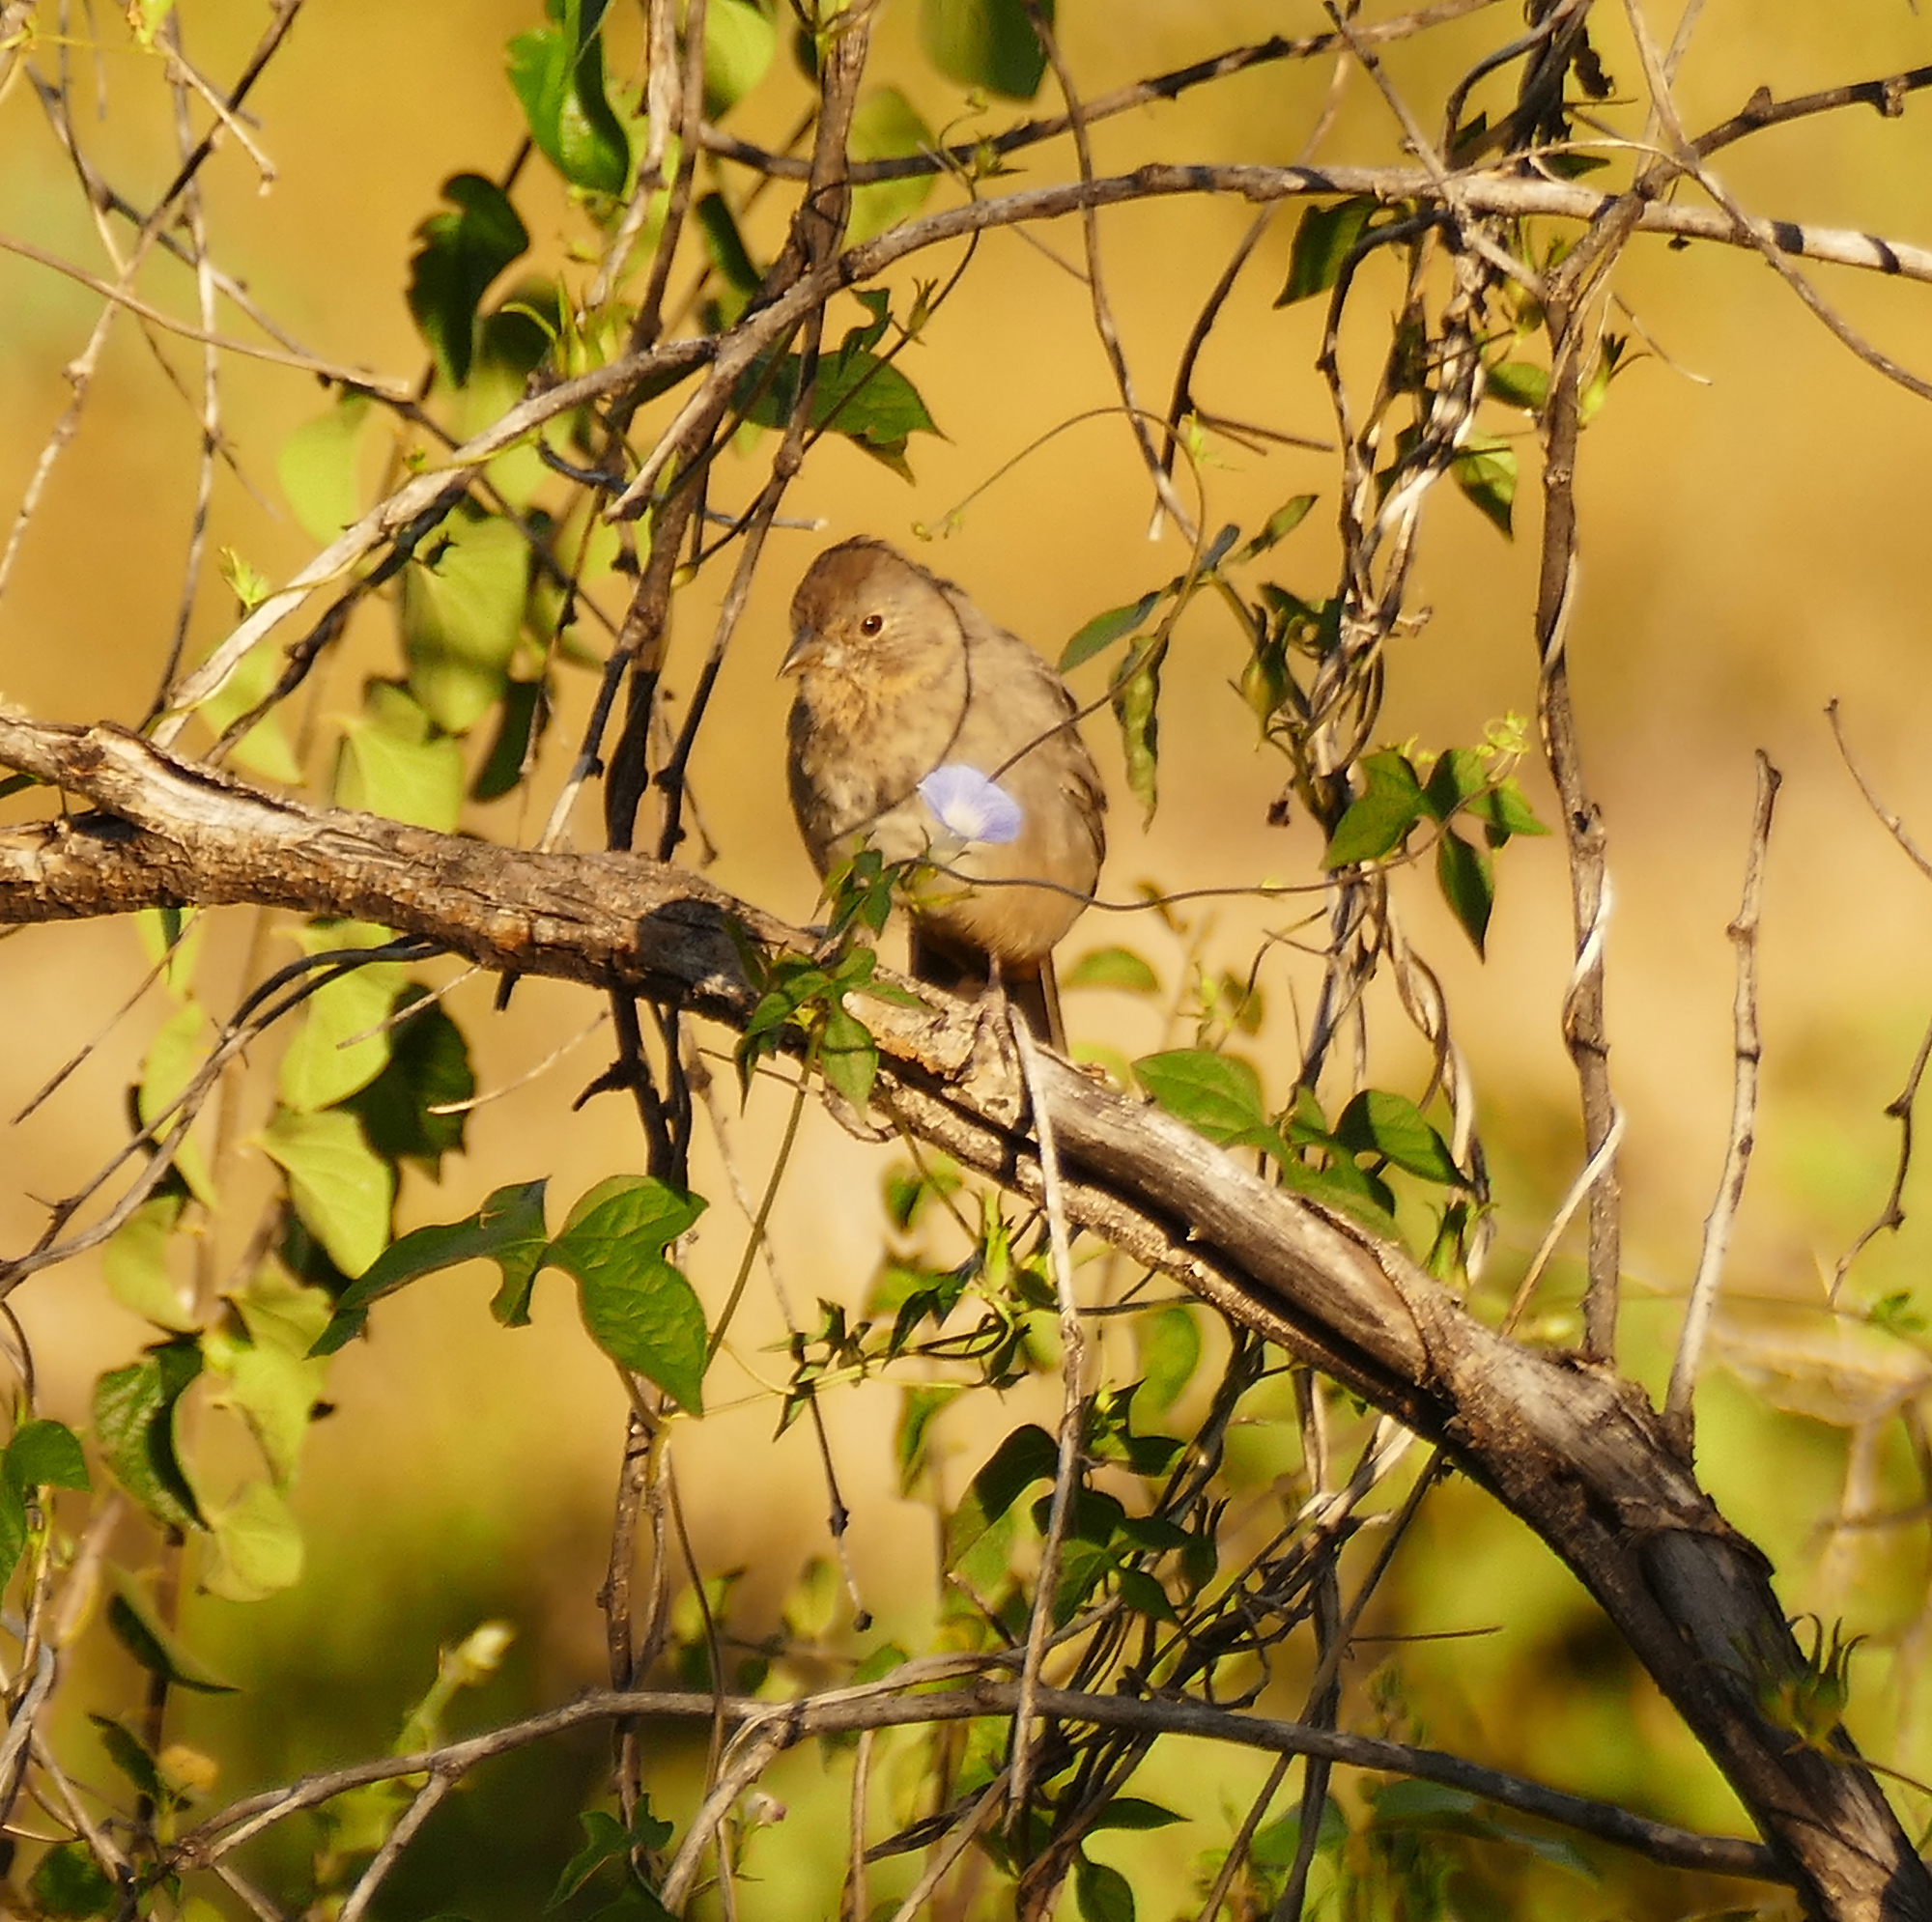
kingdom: Animalia
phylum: Chordata
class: Aves
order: Passeriformes
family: Passerellidae
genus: Melozone
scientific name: Melozone fusca
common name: Canyon towhee
